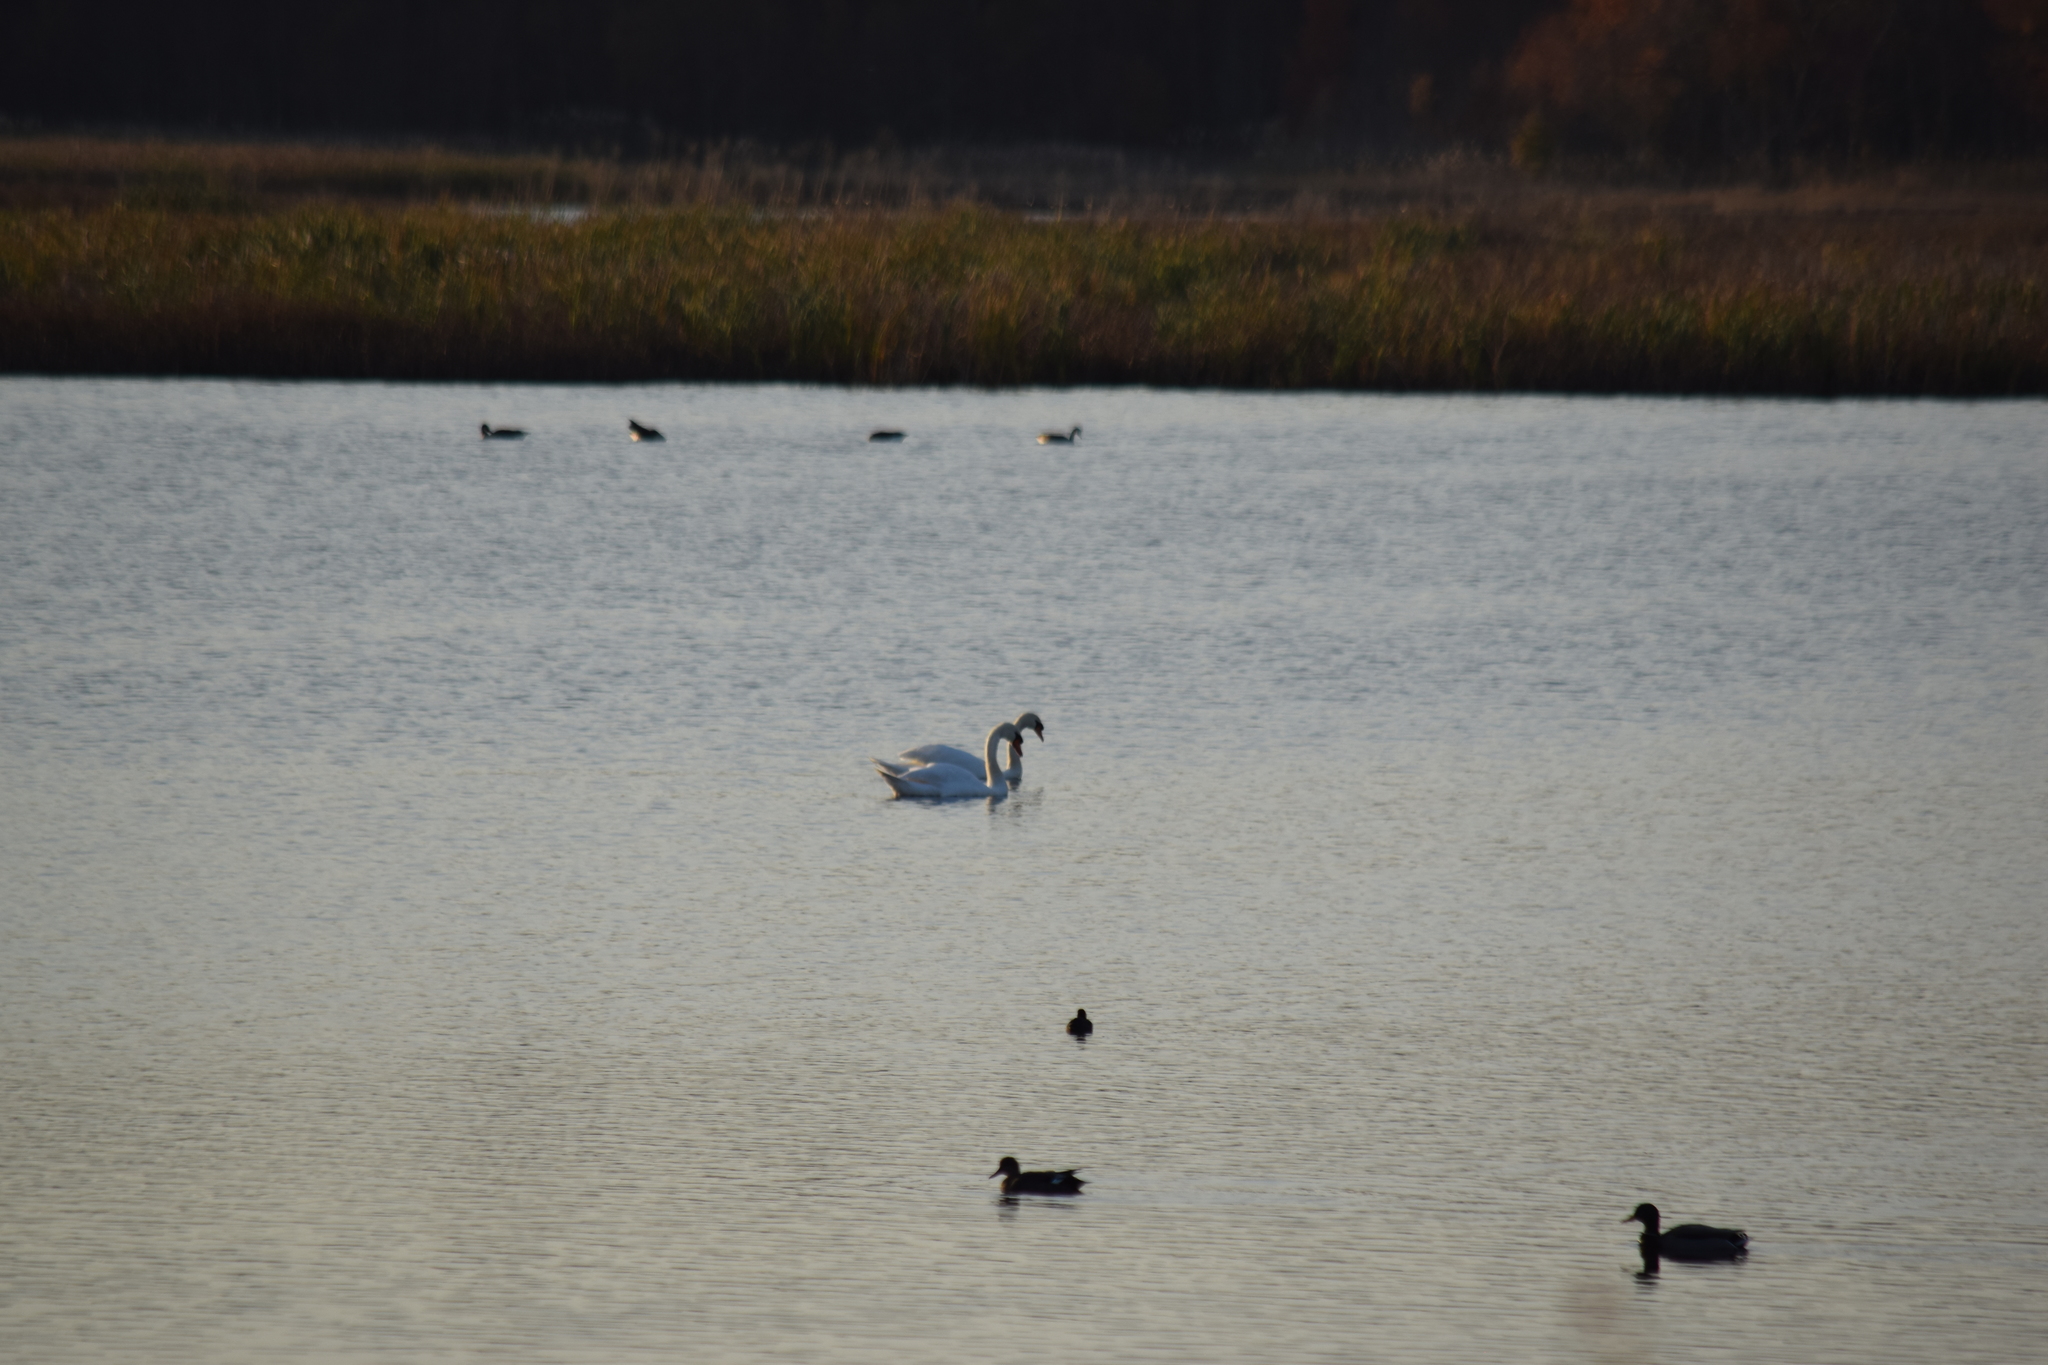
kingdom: Animalia
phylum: Chordata
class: Aves
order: Anseriformes
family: Anatidae
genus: Cygnus
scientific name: Cygnus olor
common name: Mute swan
